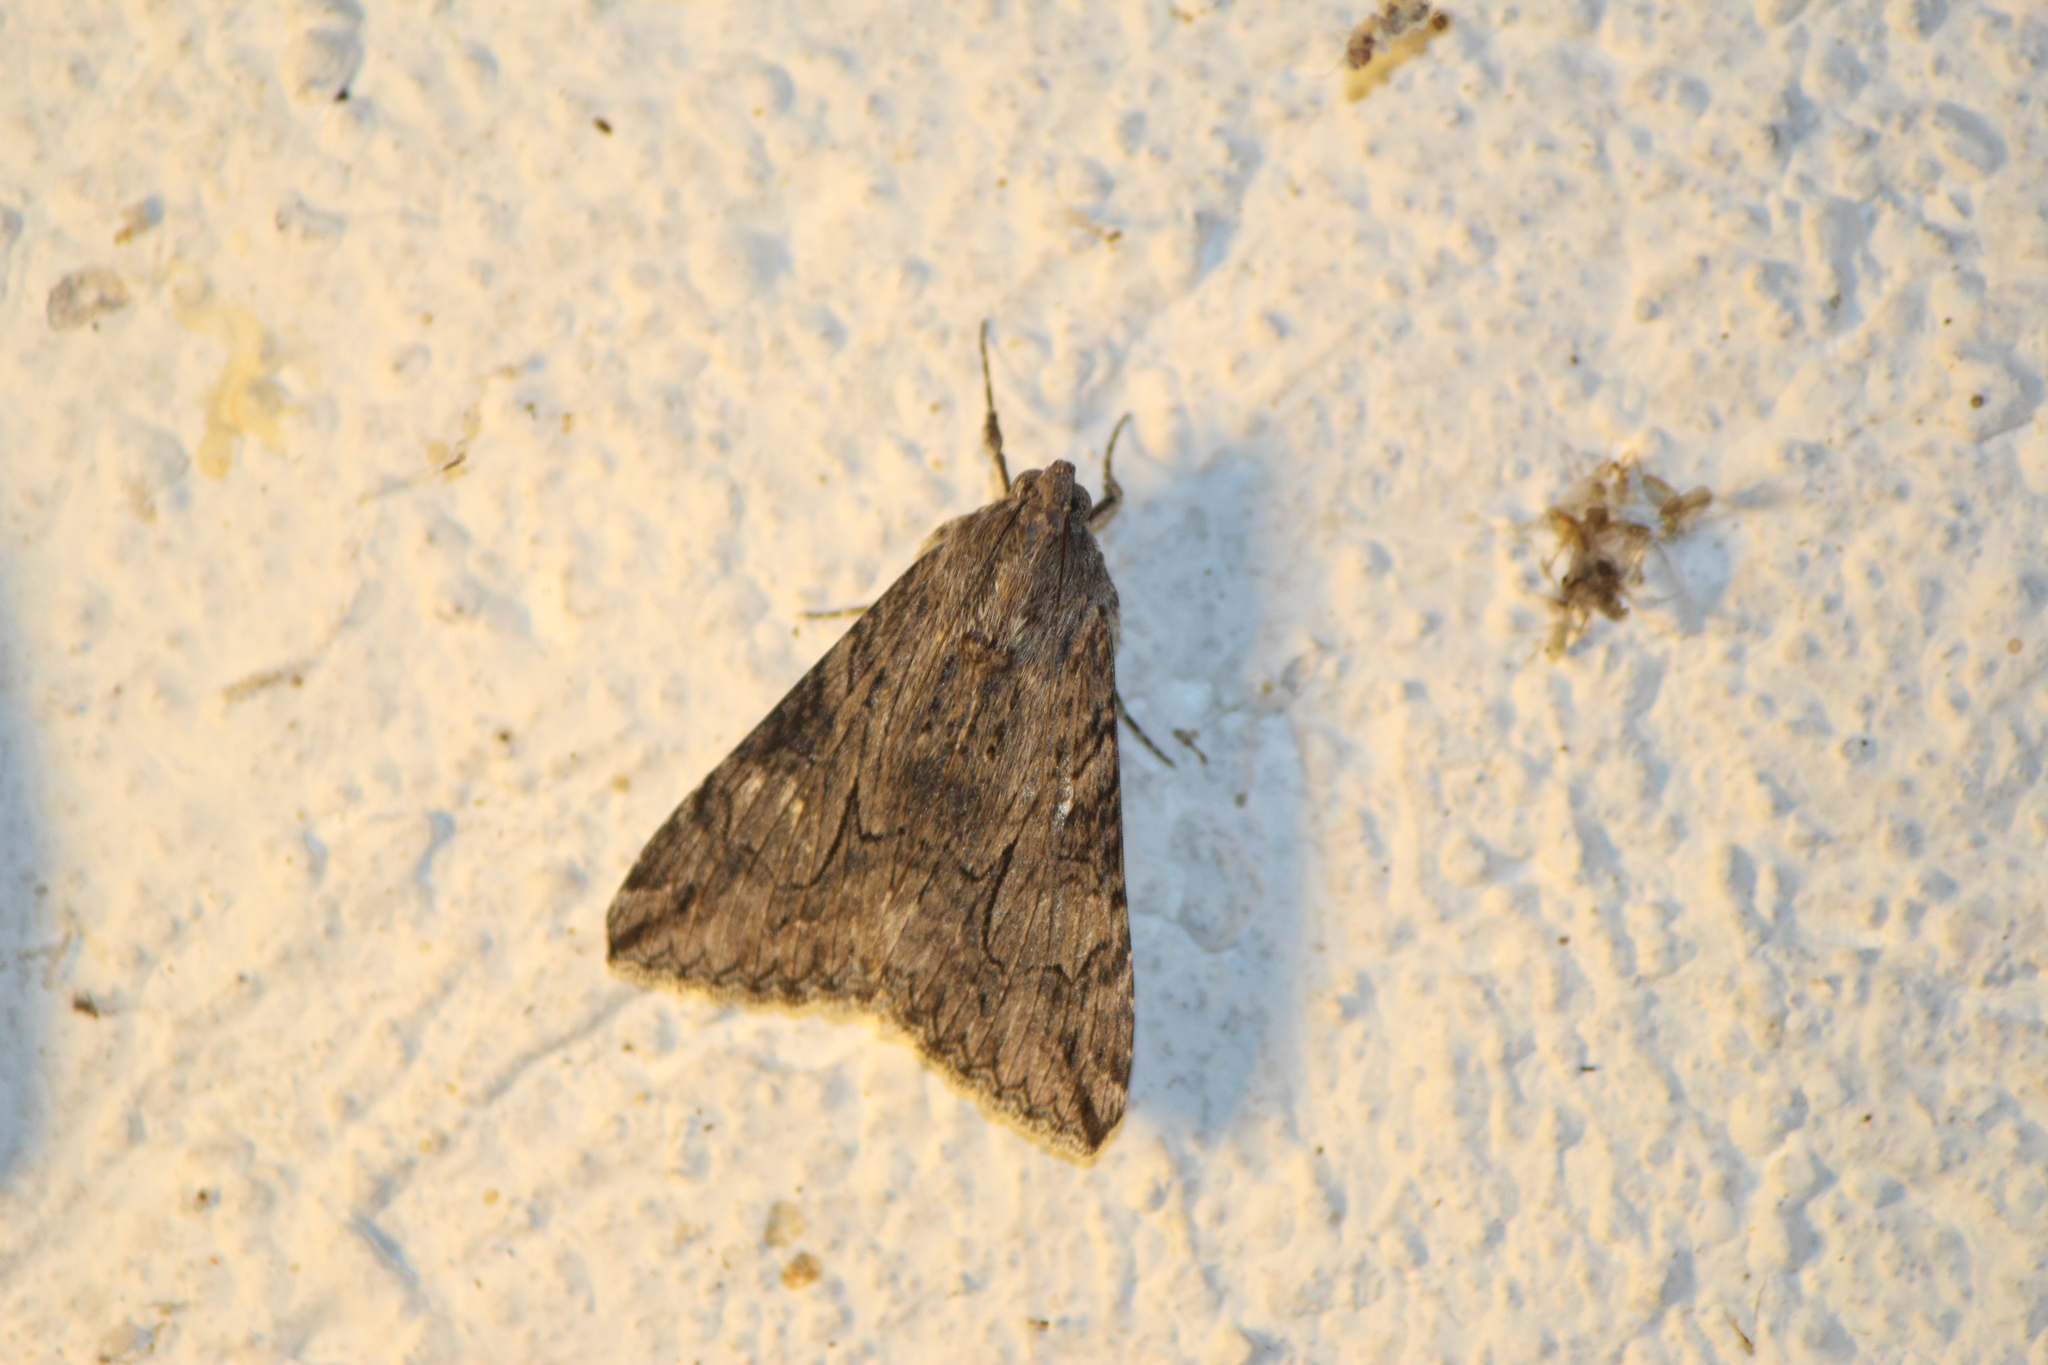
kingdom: Animalia
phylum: Arthropoda
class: Insecta
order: Lepidoptera
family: Erebidae
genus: Melipotis
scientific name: Melipotis jucunda
